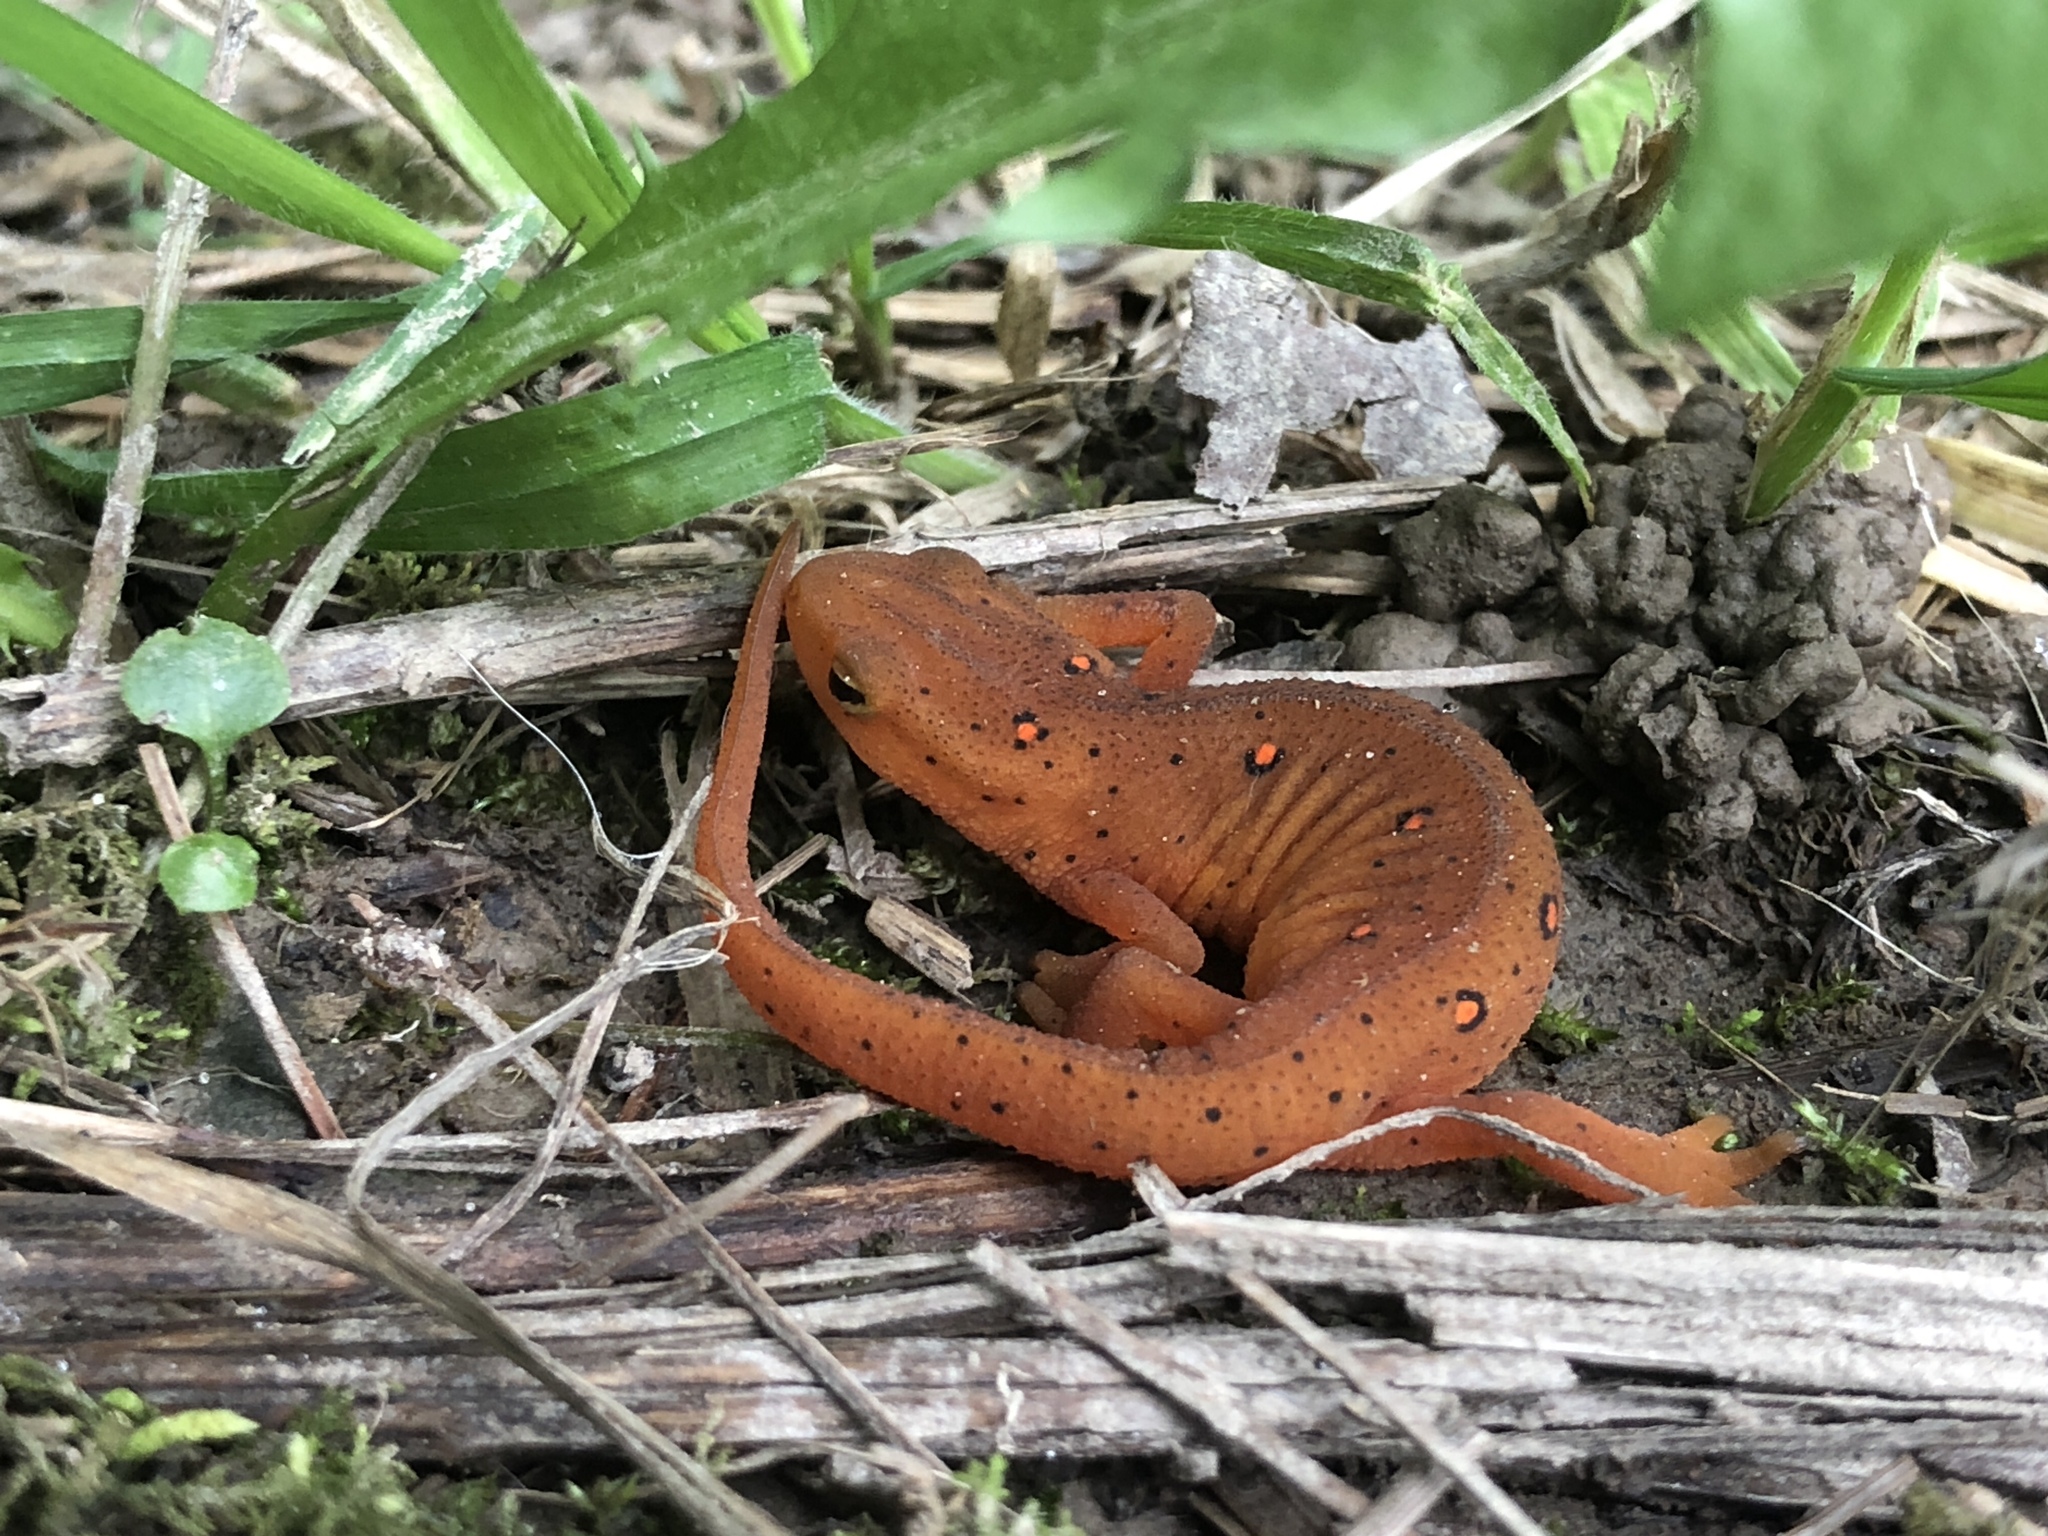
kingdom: Animalia
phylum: Chordata
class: Amphibia
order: Caudata
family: Salamandridae
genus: Notophthalmus
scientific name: Notophthalmus viridescens
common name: Eastern newt
